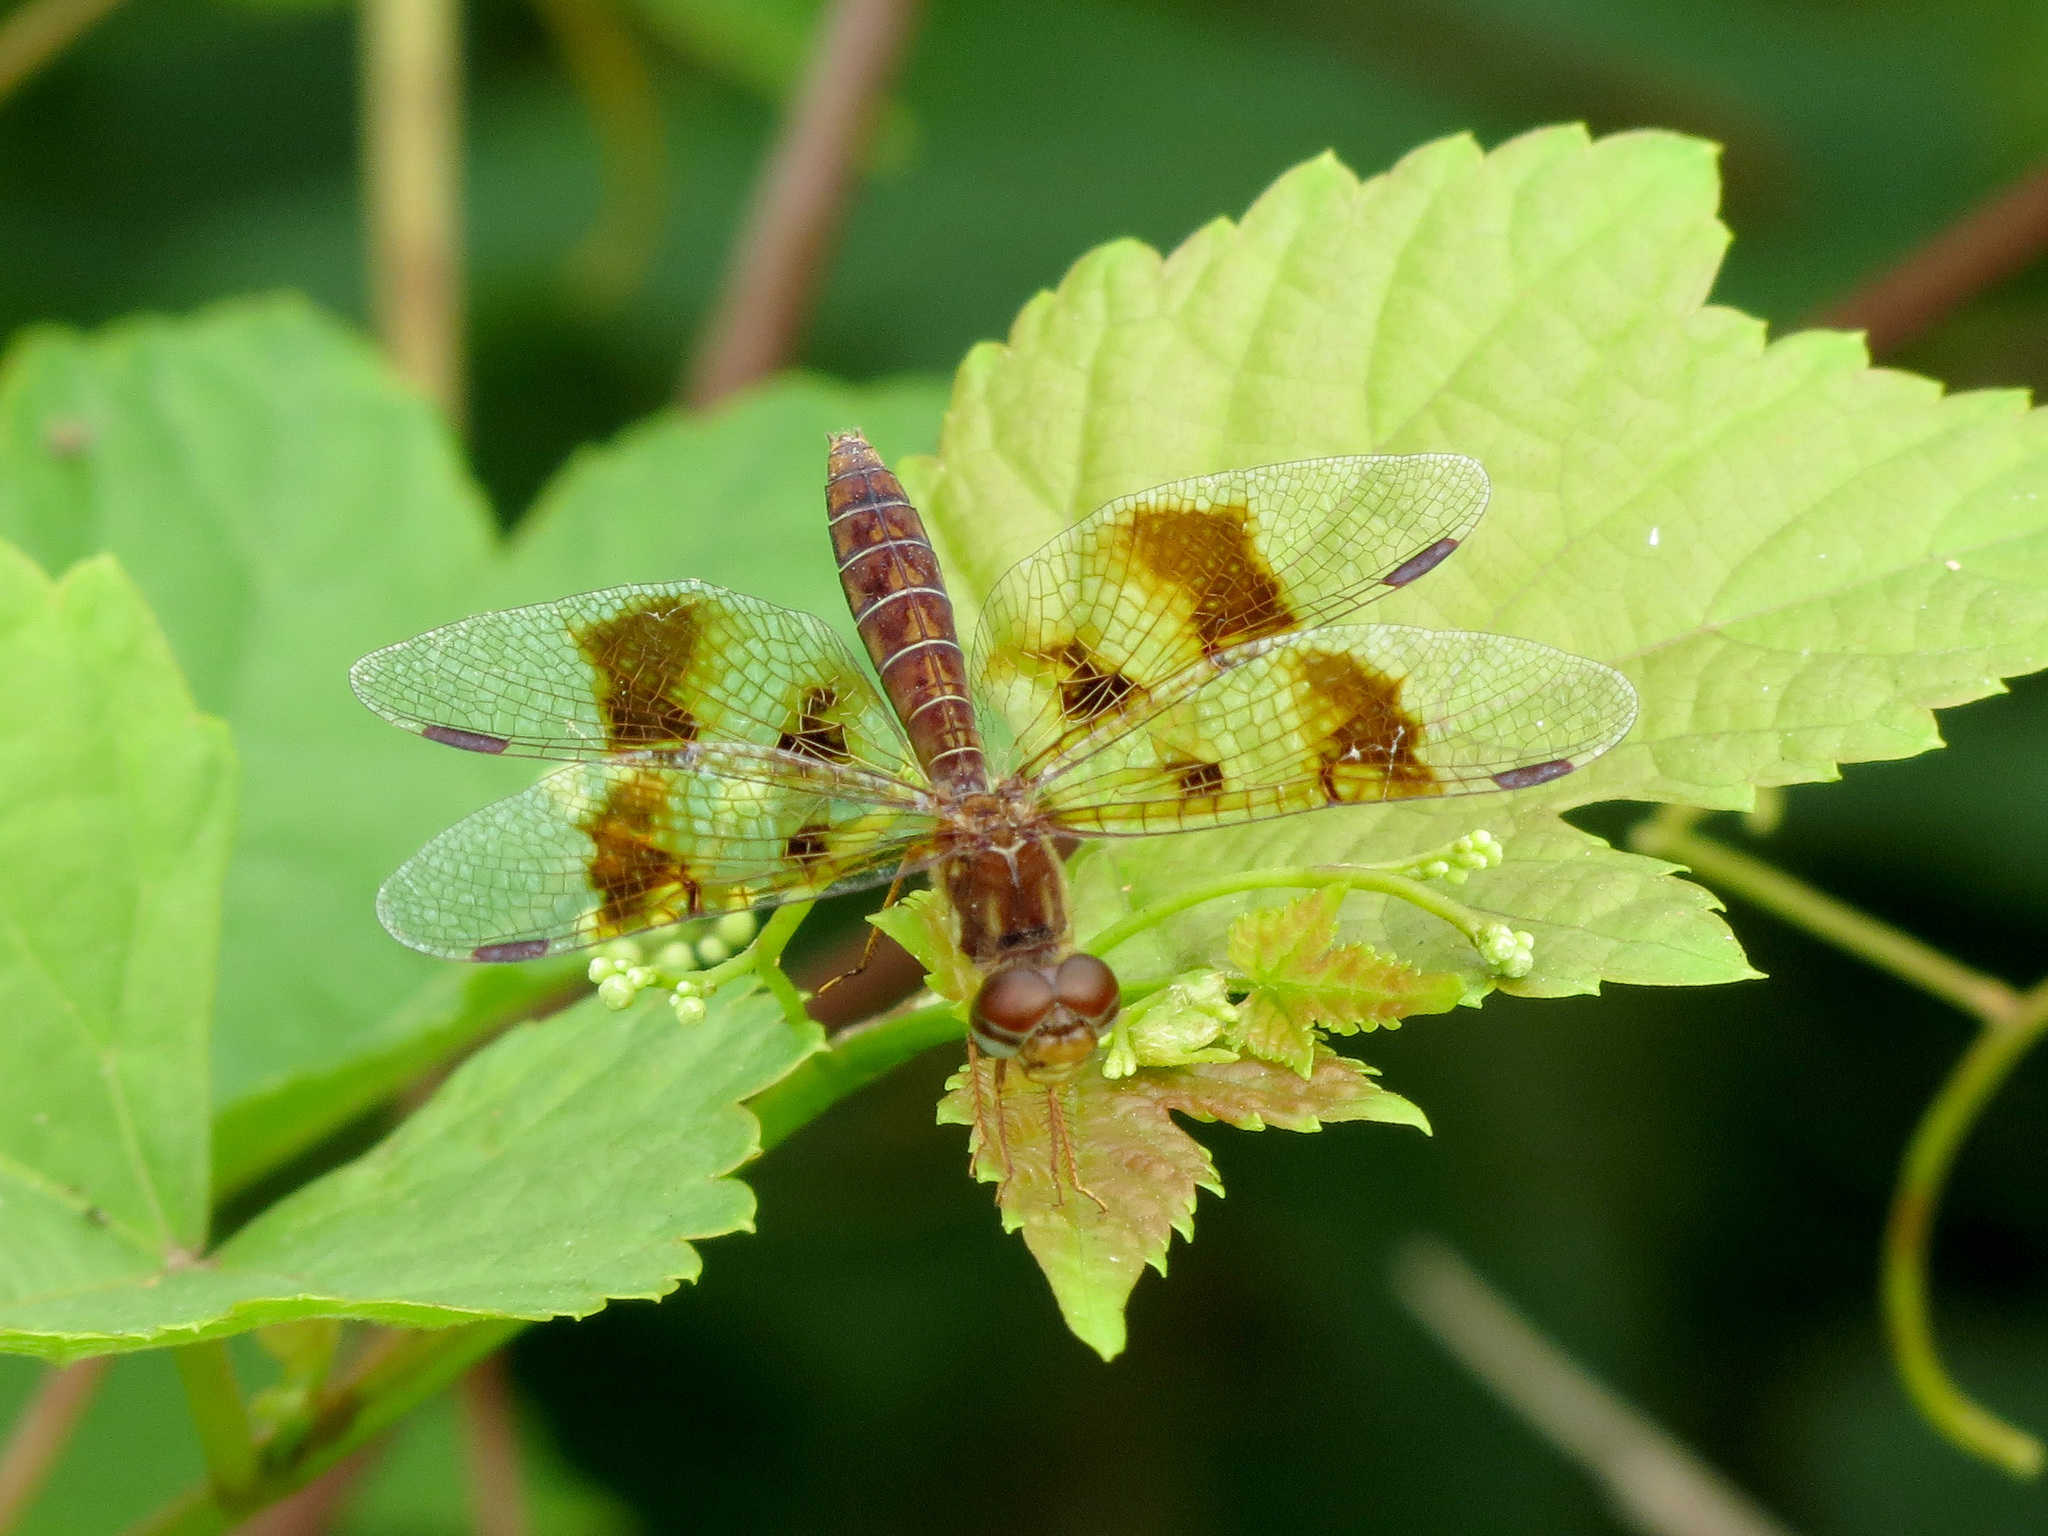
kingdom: Animalia
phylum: Arthropoda
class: Insecta
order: Odonata
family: Libellulidae
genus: Perithemis
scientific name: Perithemis tenera
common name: Eastern amberwing
